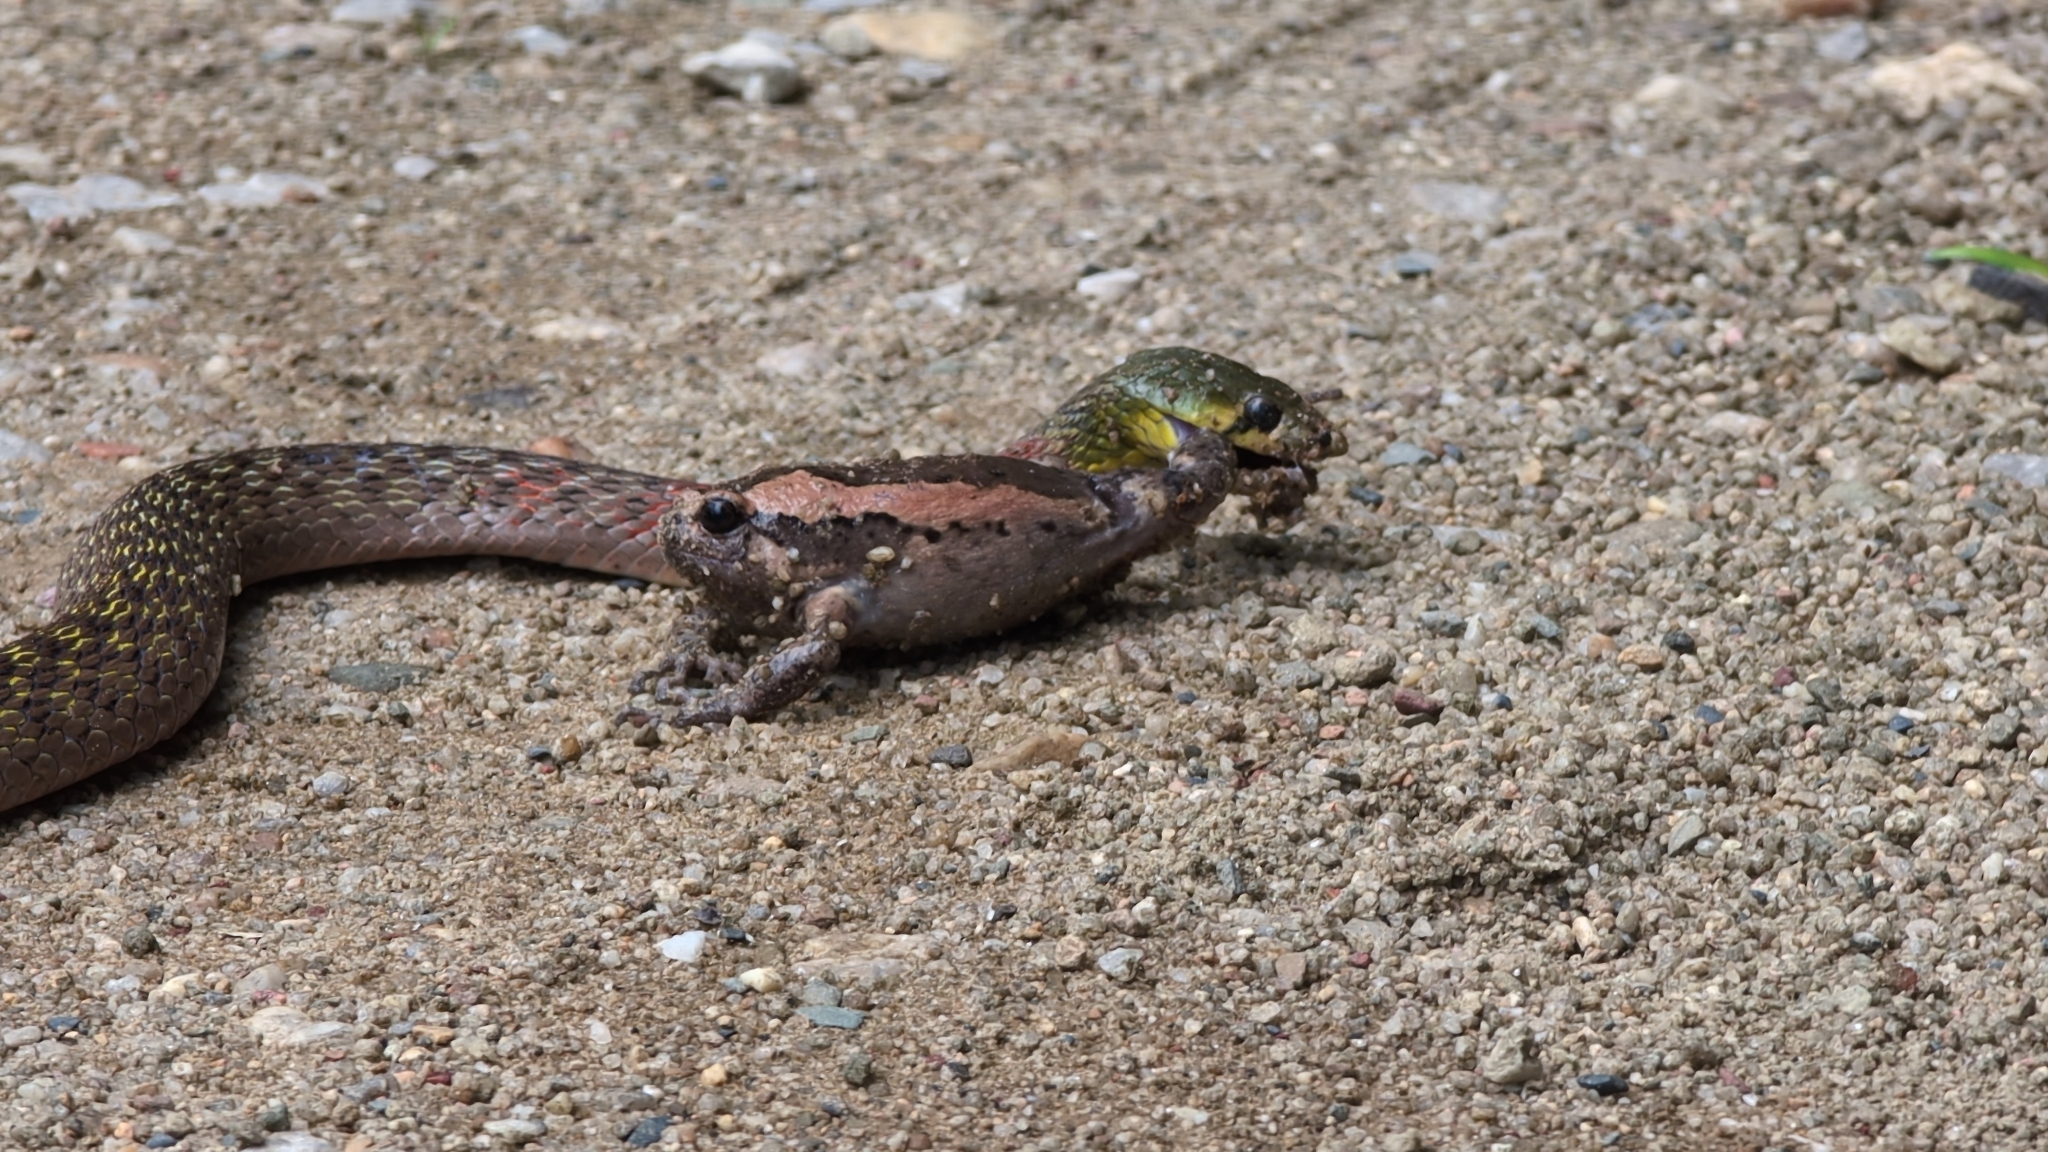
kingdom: Animalia
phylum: Chordata
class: Squamata
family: Colubridae
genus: Rhabdophis
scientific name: Rhabdophis
